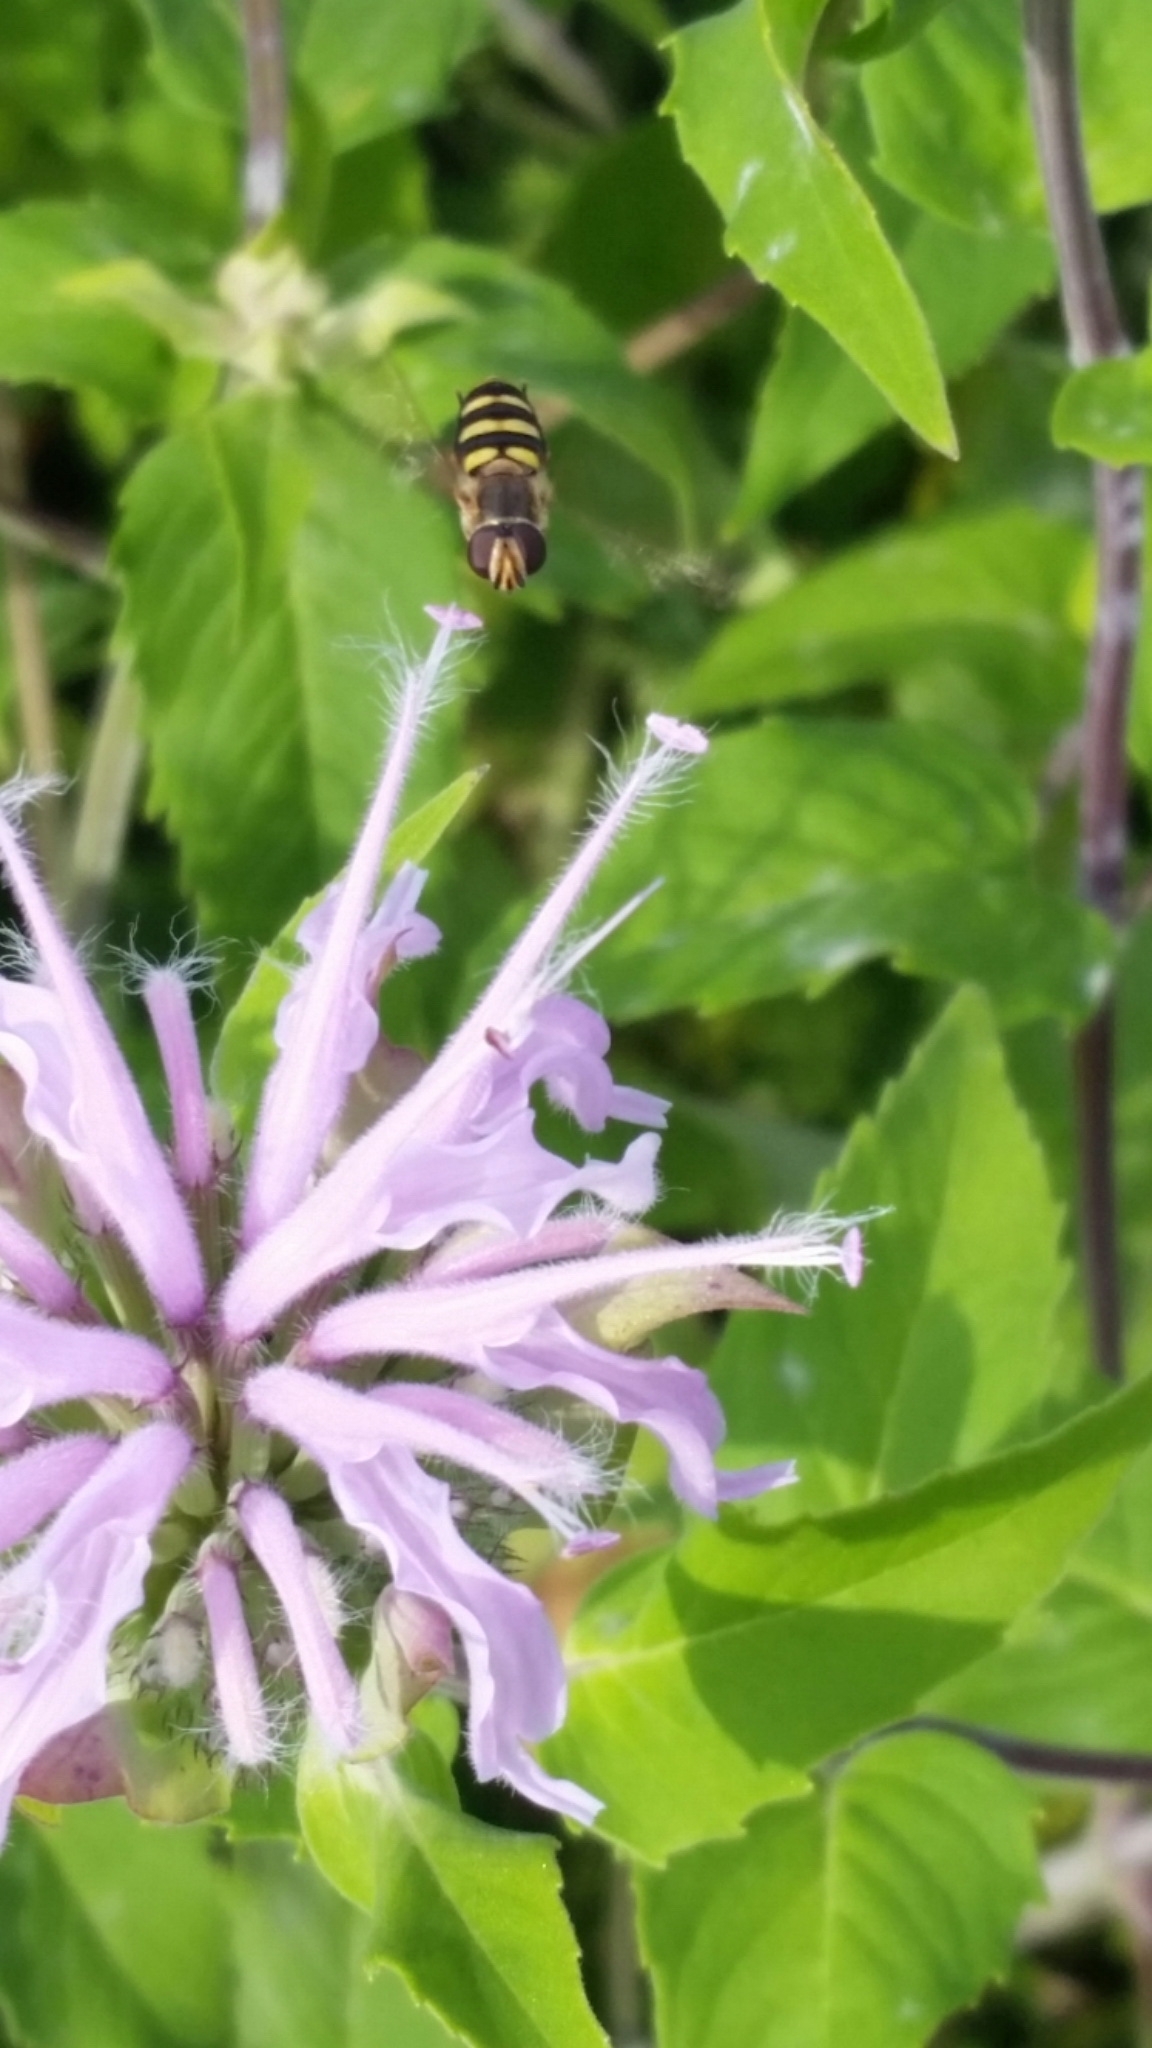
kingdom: Animalia
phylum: Arthropoda
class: Insecta
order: Diptera
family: Syrphidae
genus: Eupeodes
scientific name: Eupeodes
